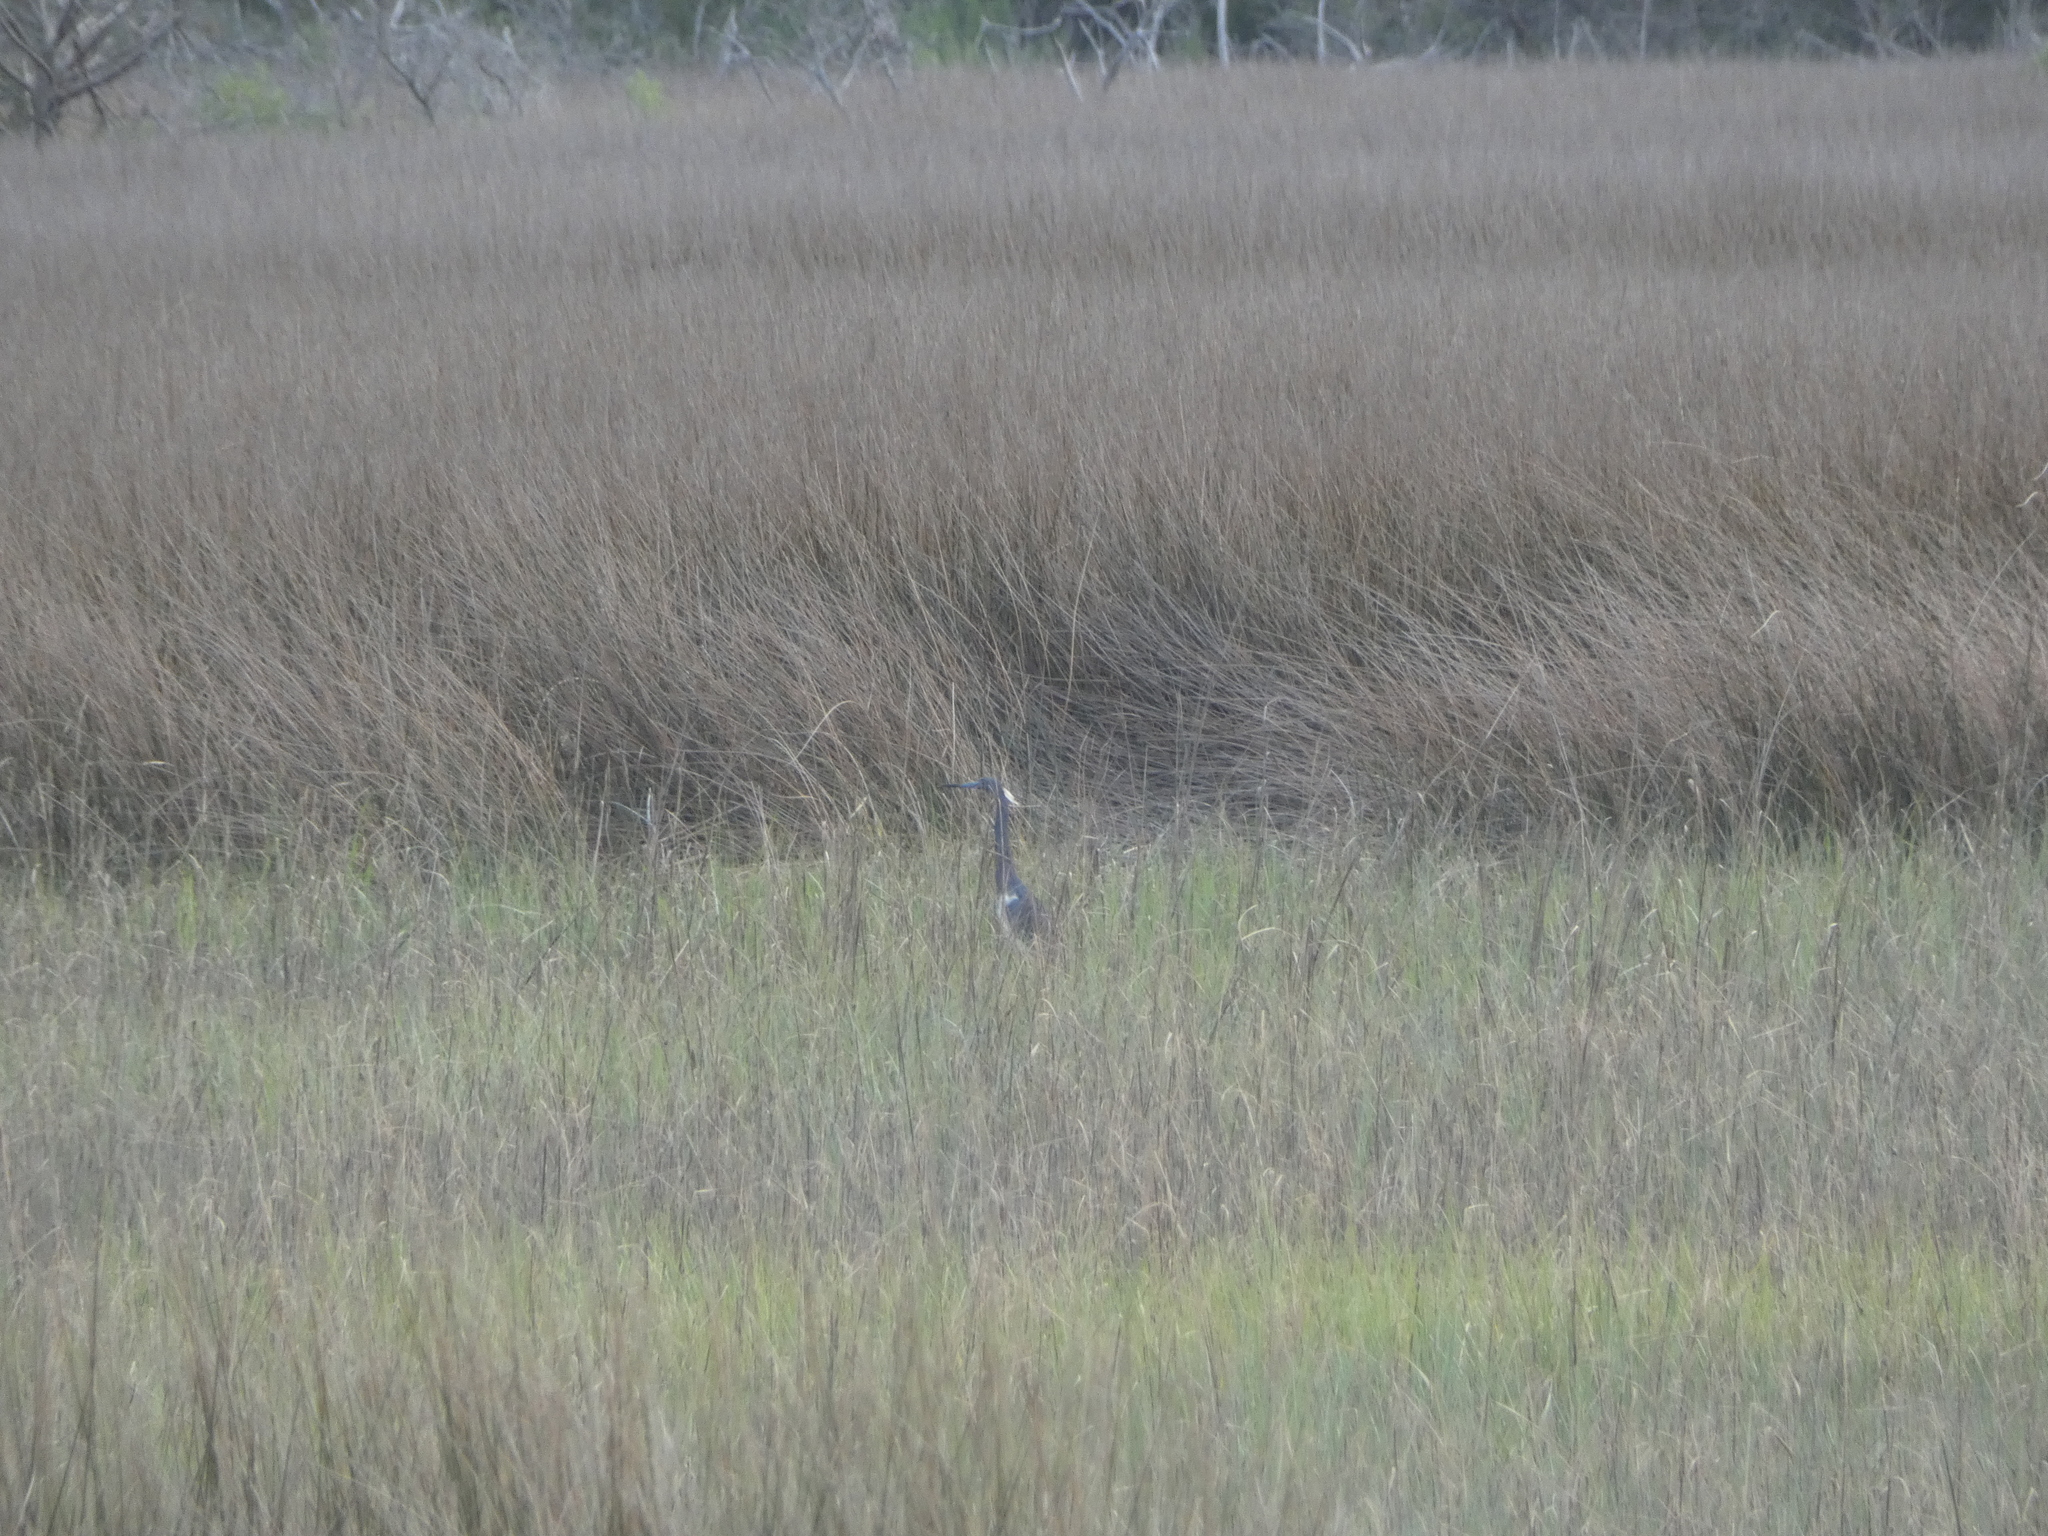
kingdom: Animalia
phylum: Chordata
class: Aves
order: Pelecaniformes
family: Ardeidae
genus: Egretta
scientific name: Egretta tricolor
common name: Tricolored heron
